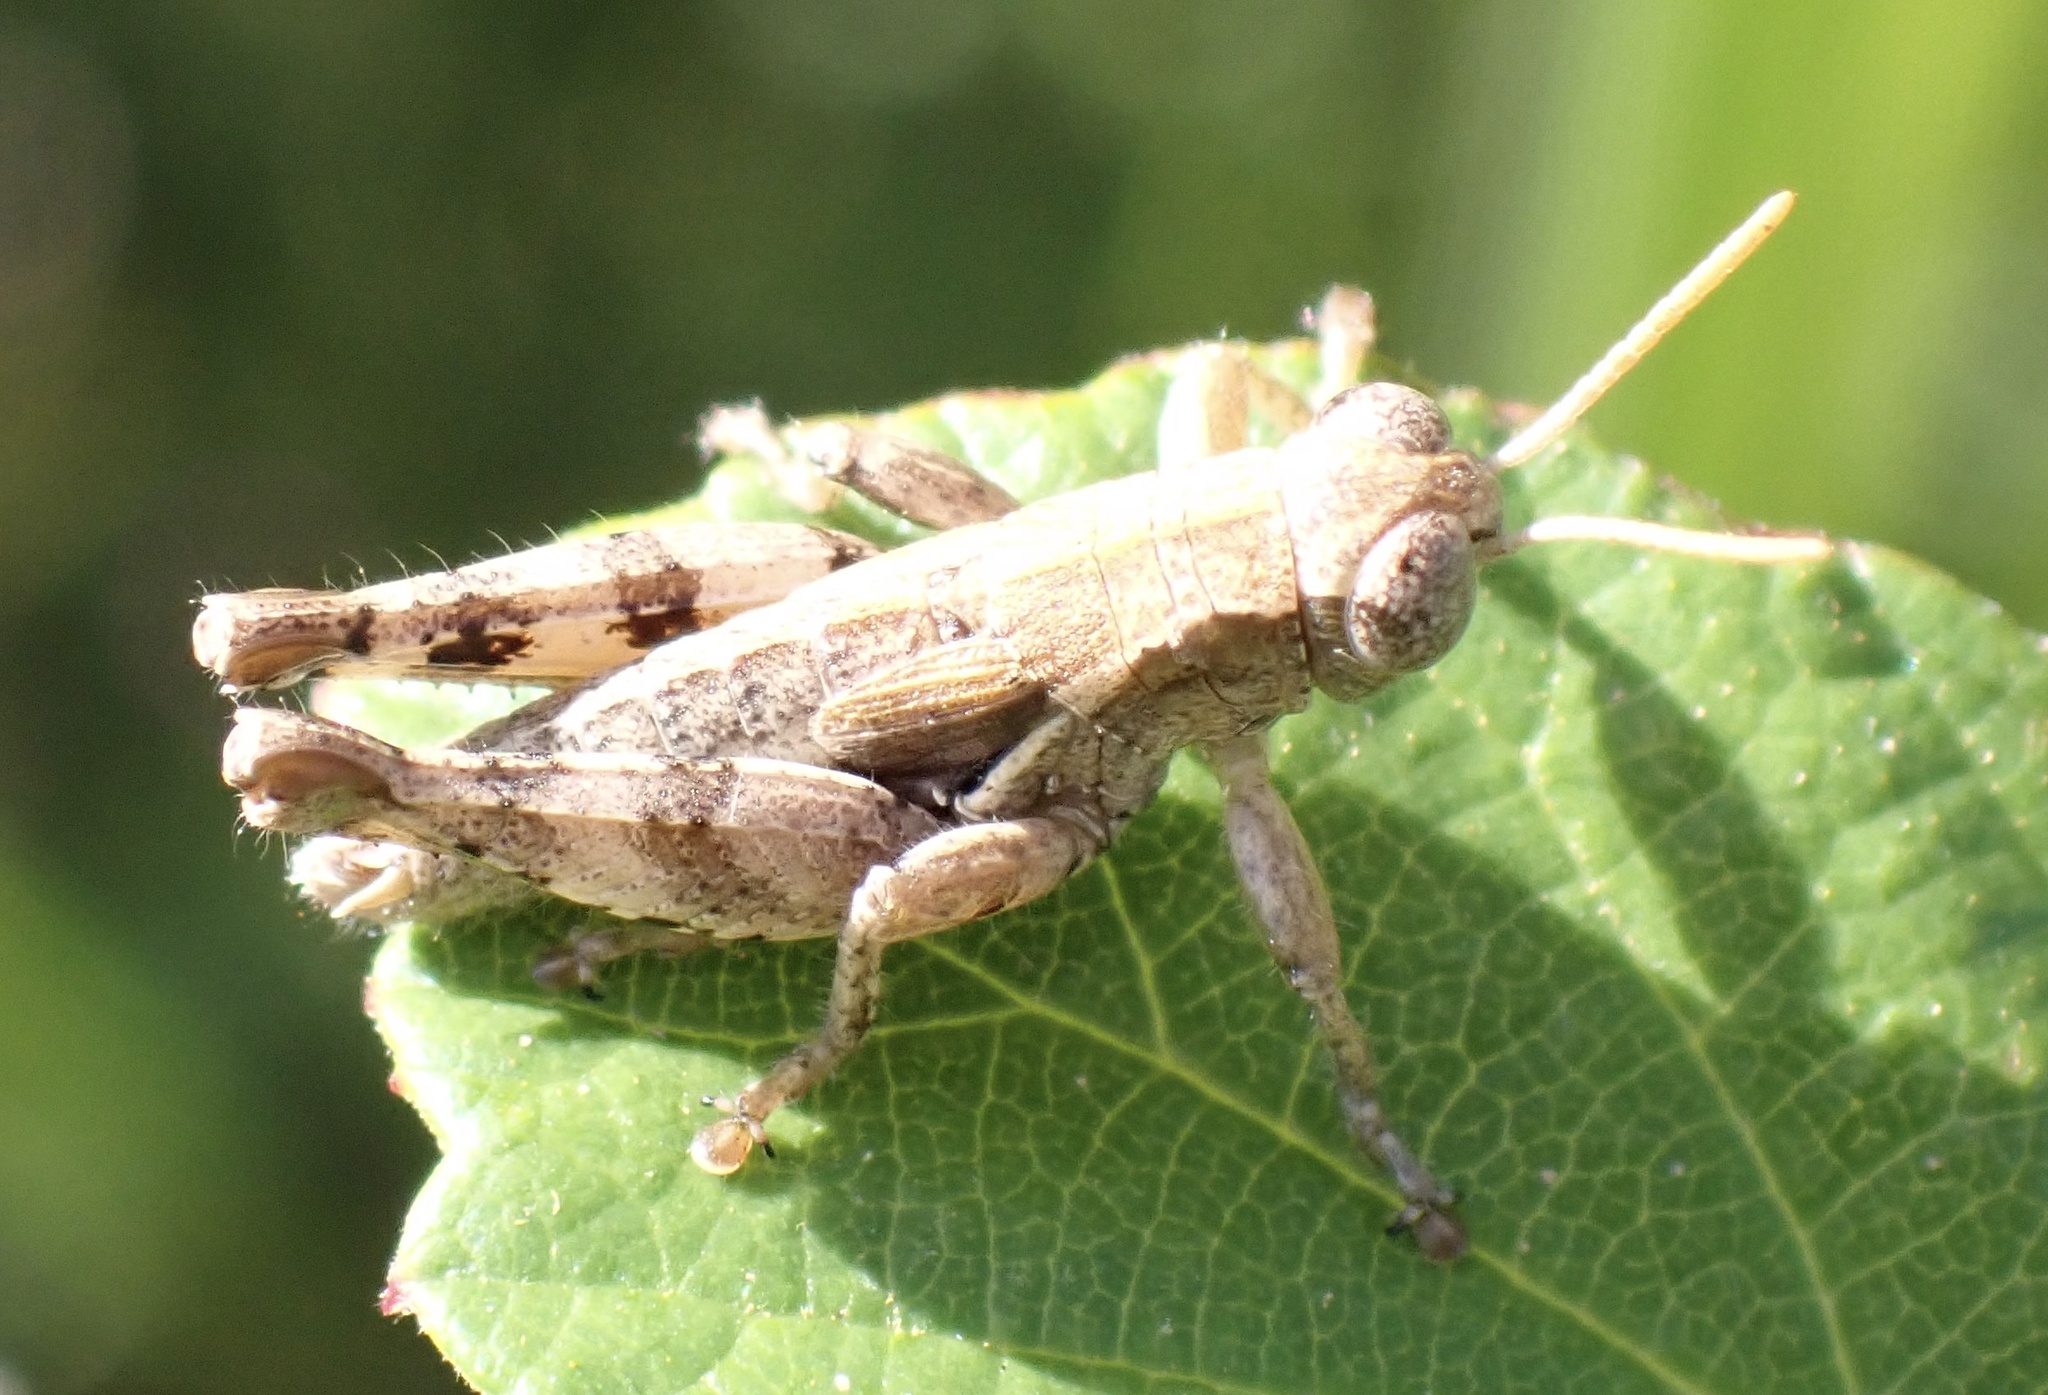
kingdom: Animalia
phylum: Arthropoda
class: Insecta
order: Orthoptera
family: Acrididae
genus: Pezotettix
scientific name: Pezotettix giornae
